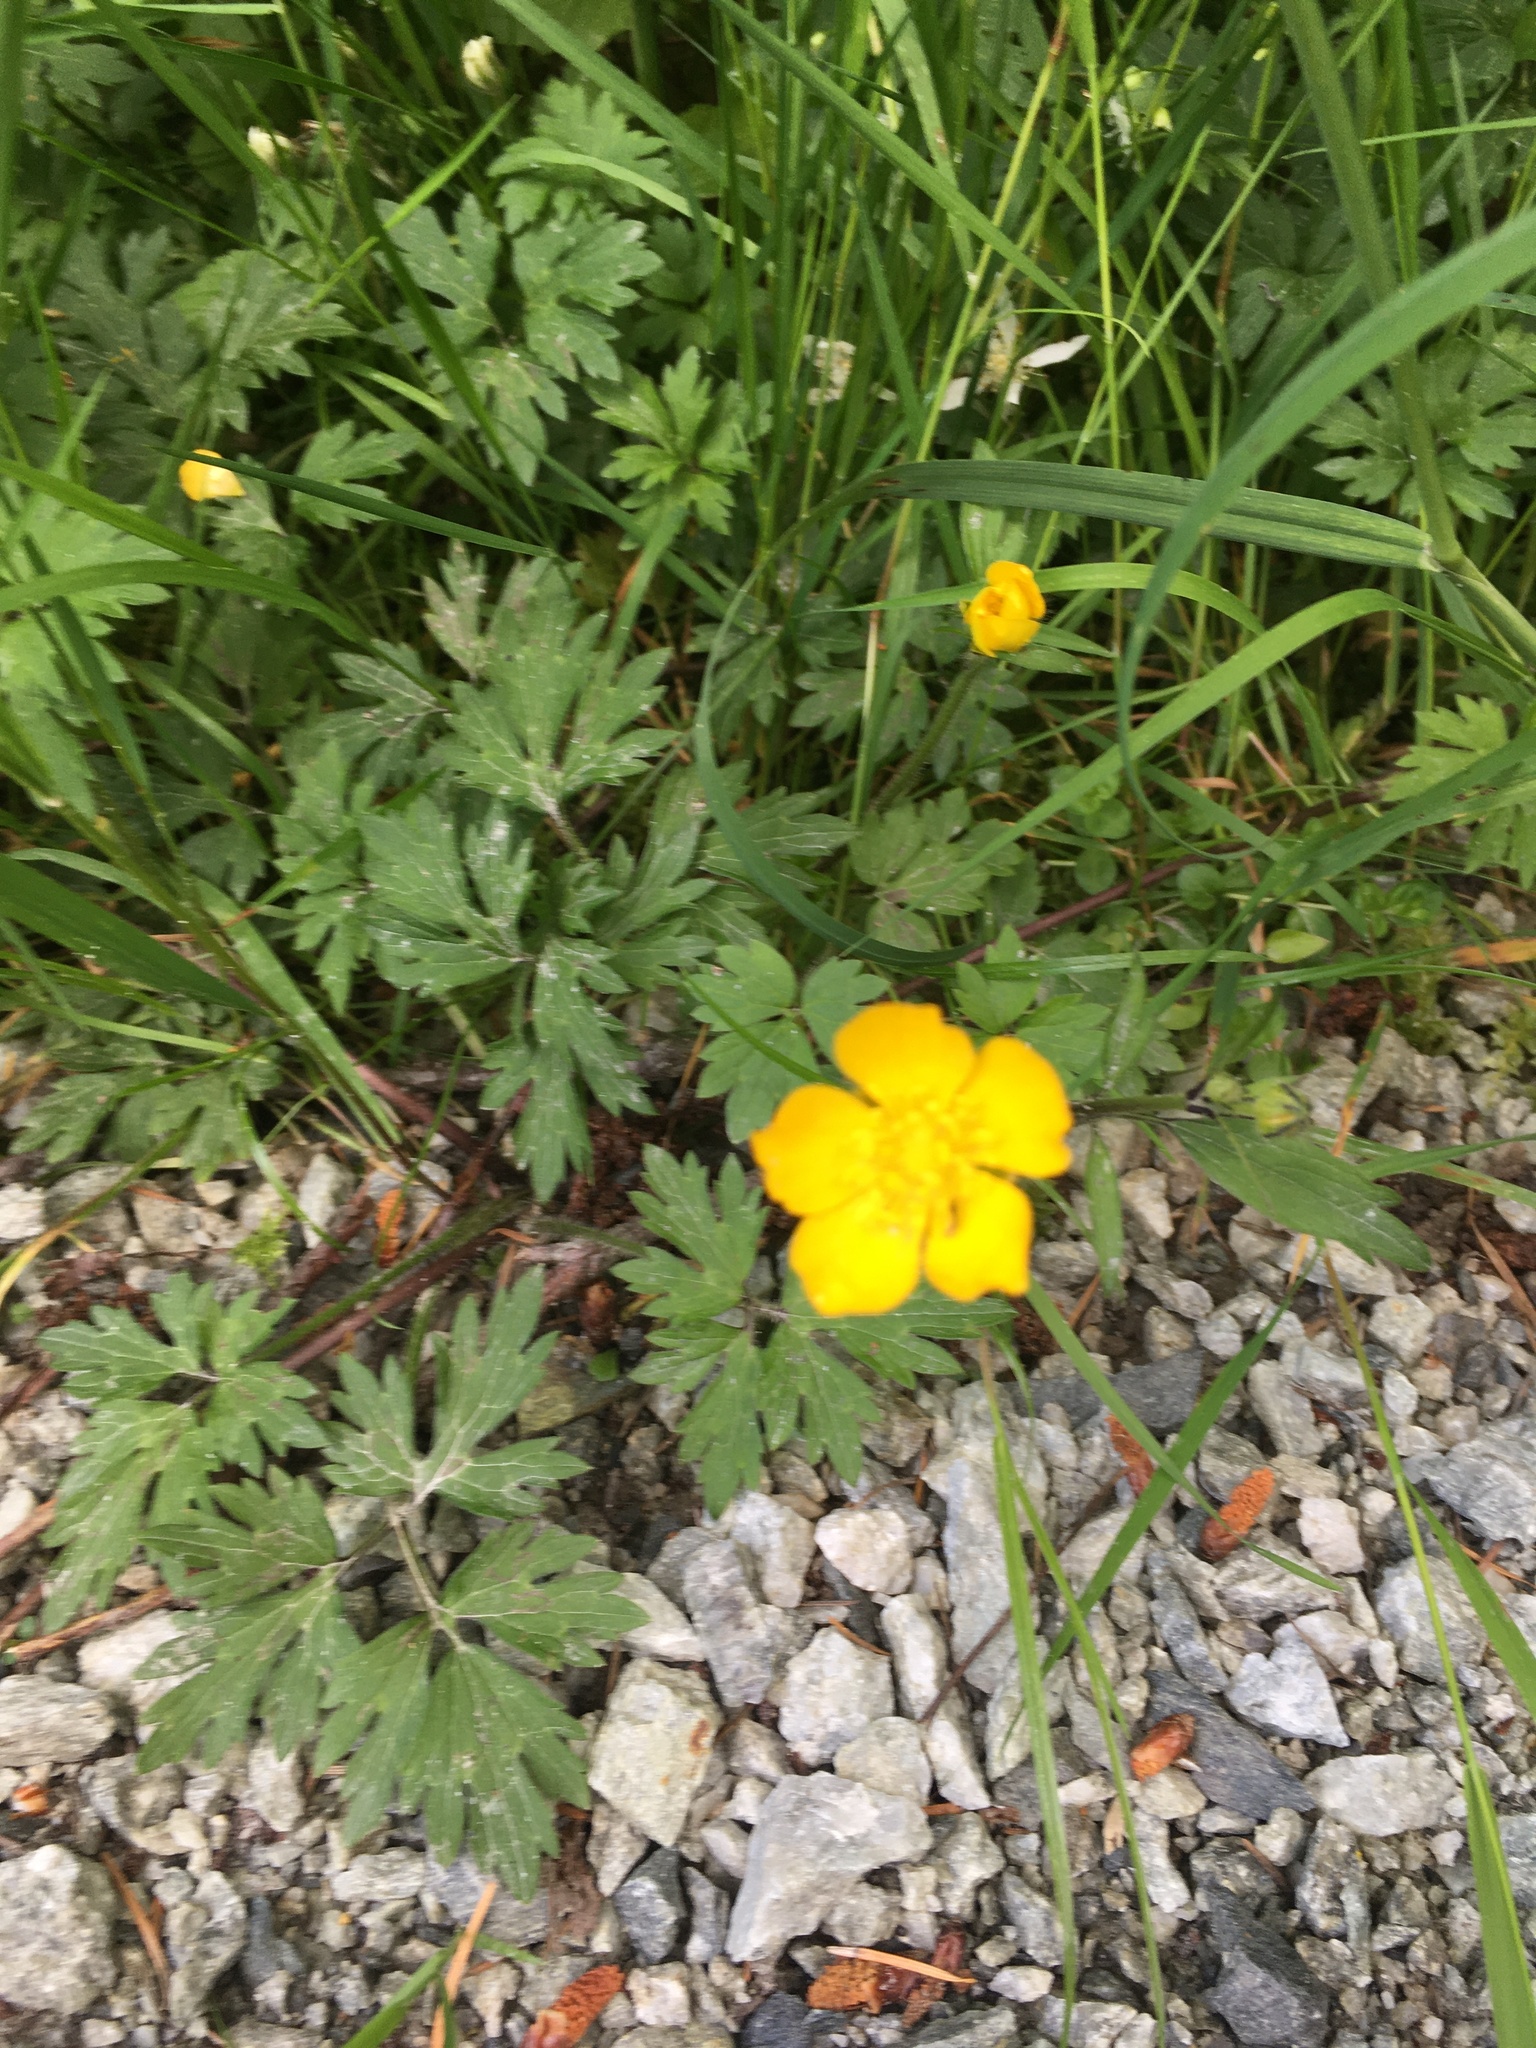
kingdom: Plantae
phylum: Tracheophyta
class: Magnoliopsida
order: Ranunculales
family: Ranunculaceae
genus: Ranunculus
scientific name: Ranunculus repens
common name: Creeping buttercup
